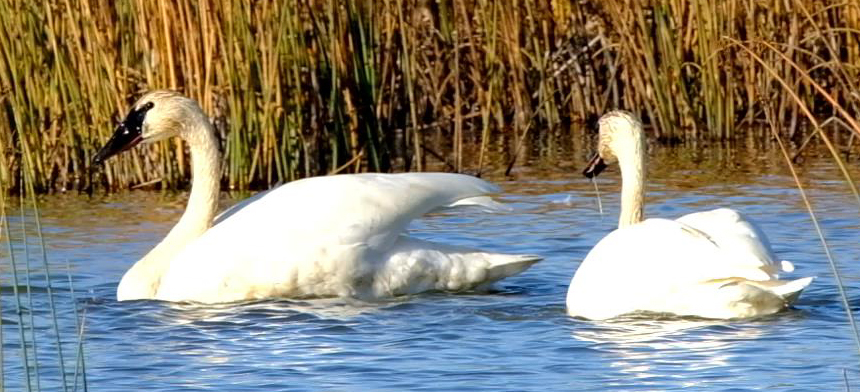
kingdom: Animalia
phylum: Chordata
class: Aves
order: Anseriformes
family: Anatidae
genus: Cygnus
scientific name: Cygnus buccinator
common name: Trumpeter swan
